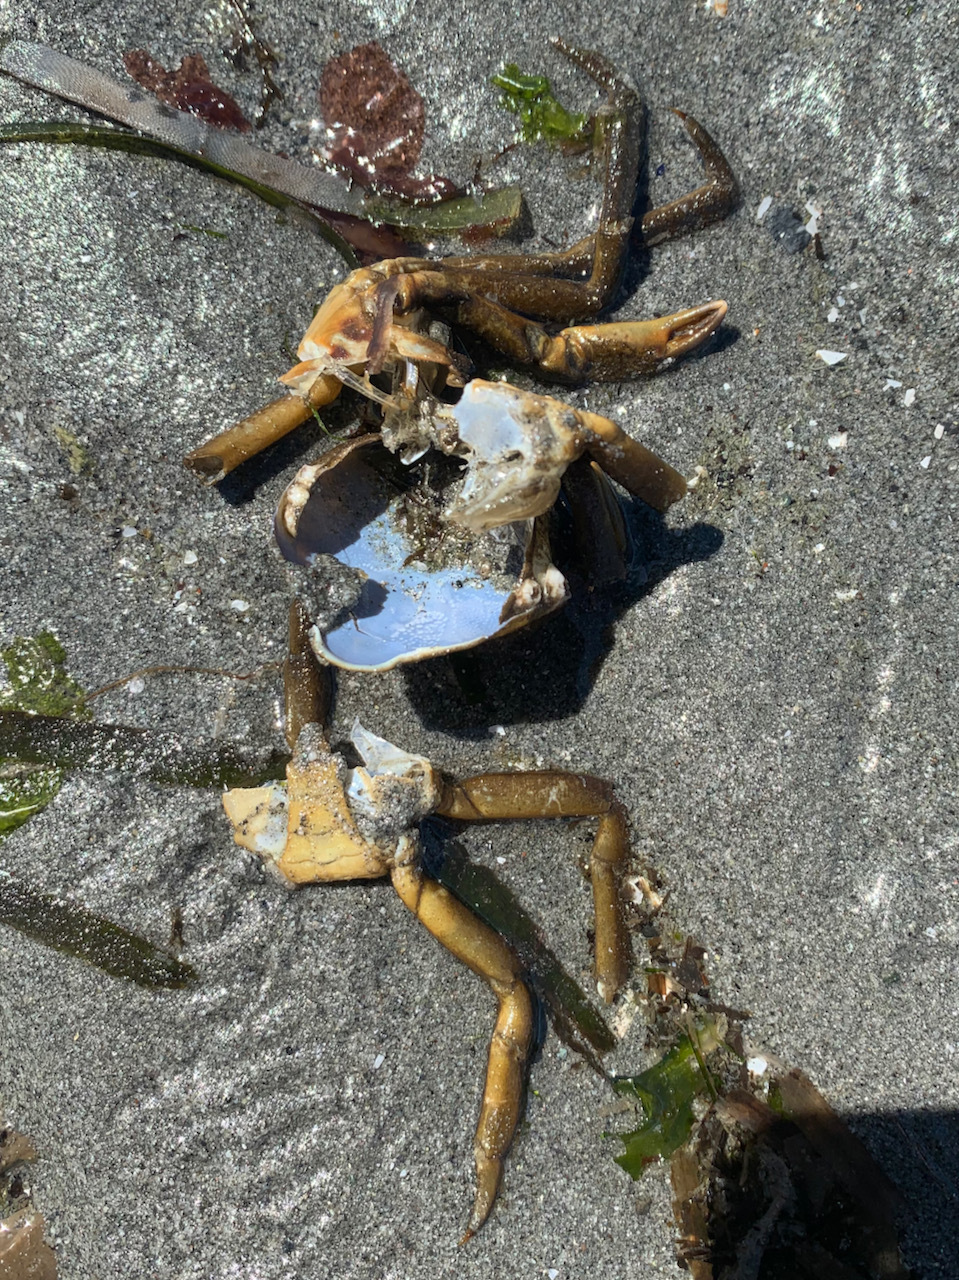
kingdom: Animalia
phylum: Arthropoda
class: Malacostraca
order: Decapoda
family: Epialtidae
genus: Pugettia
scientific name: Pugettia producta
